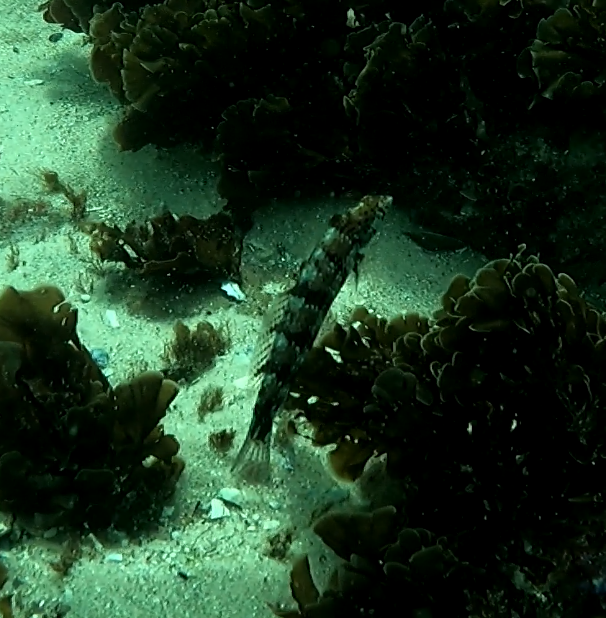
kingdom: Animalia
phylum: Chordata
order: Perciformes
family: Labridae
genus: Eupetrichthys
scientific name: Eupetrichthys angustipes
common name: Snake-skin wrasse
